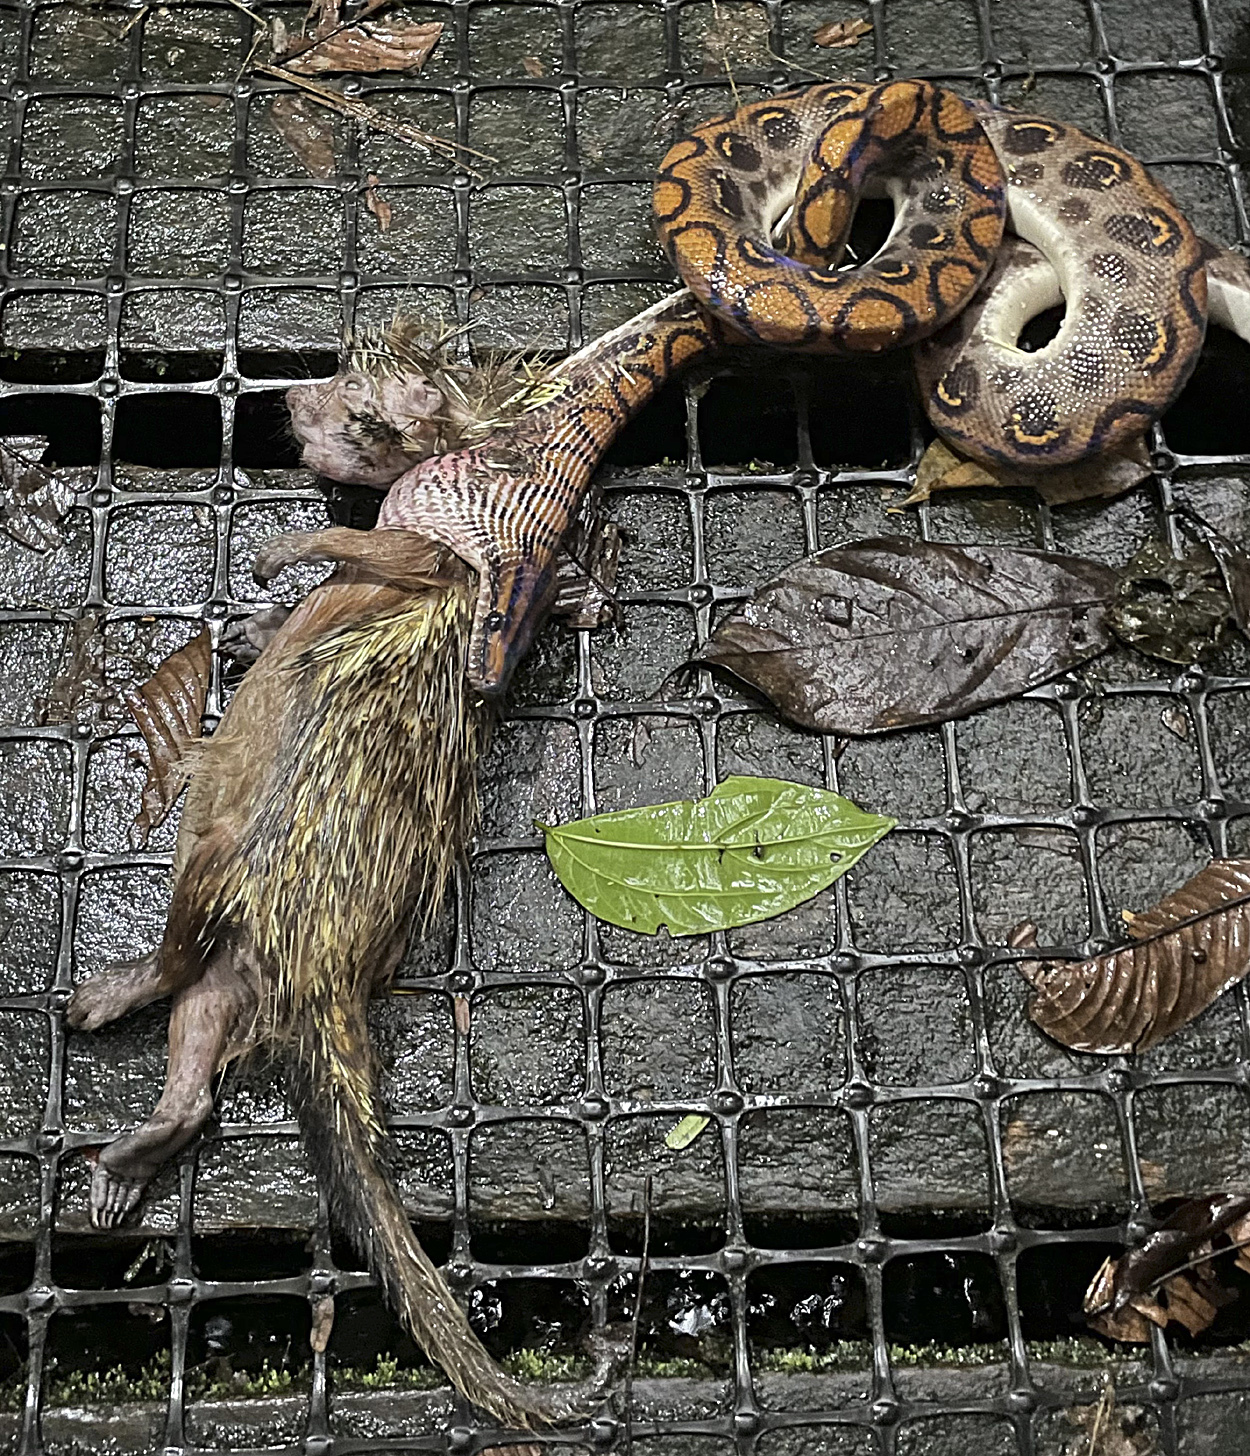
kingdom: Animalia
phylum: Chordata
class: Mammalia
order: Rodentia
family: Erethizontidae
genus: Coendou
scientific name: Coendou ichillus
